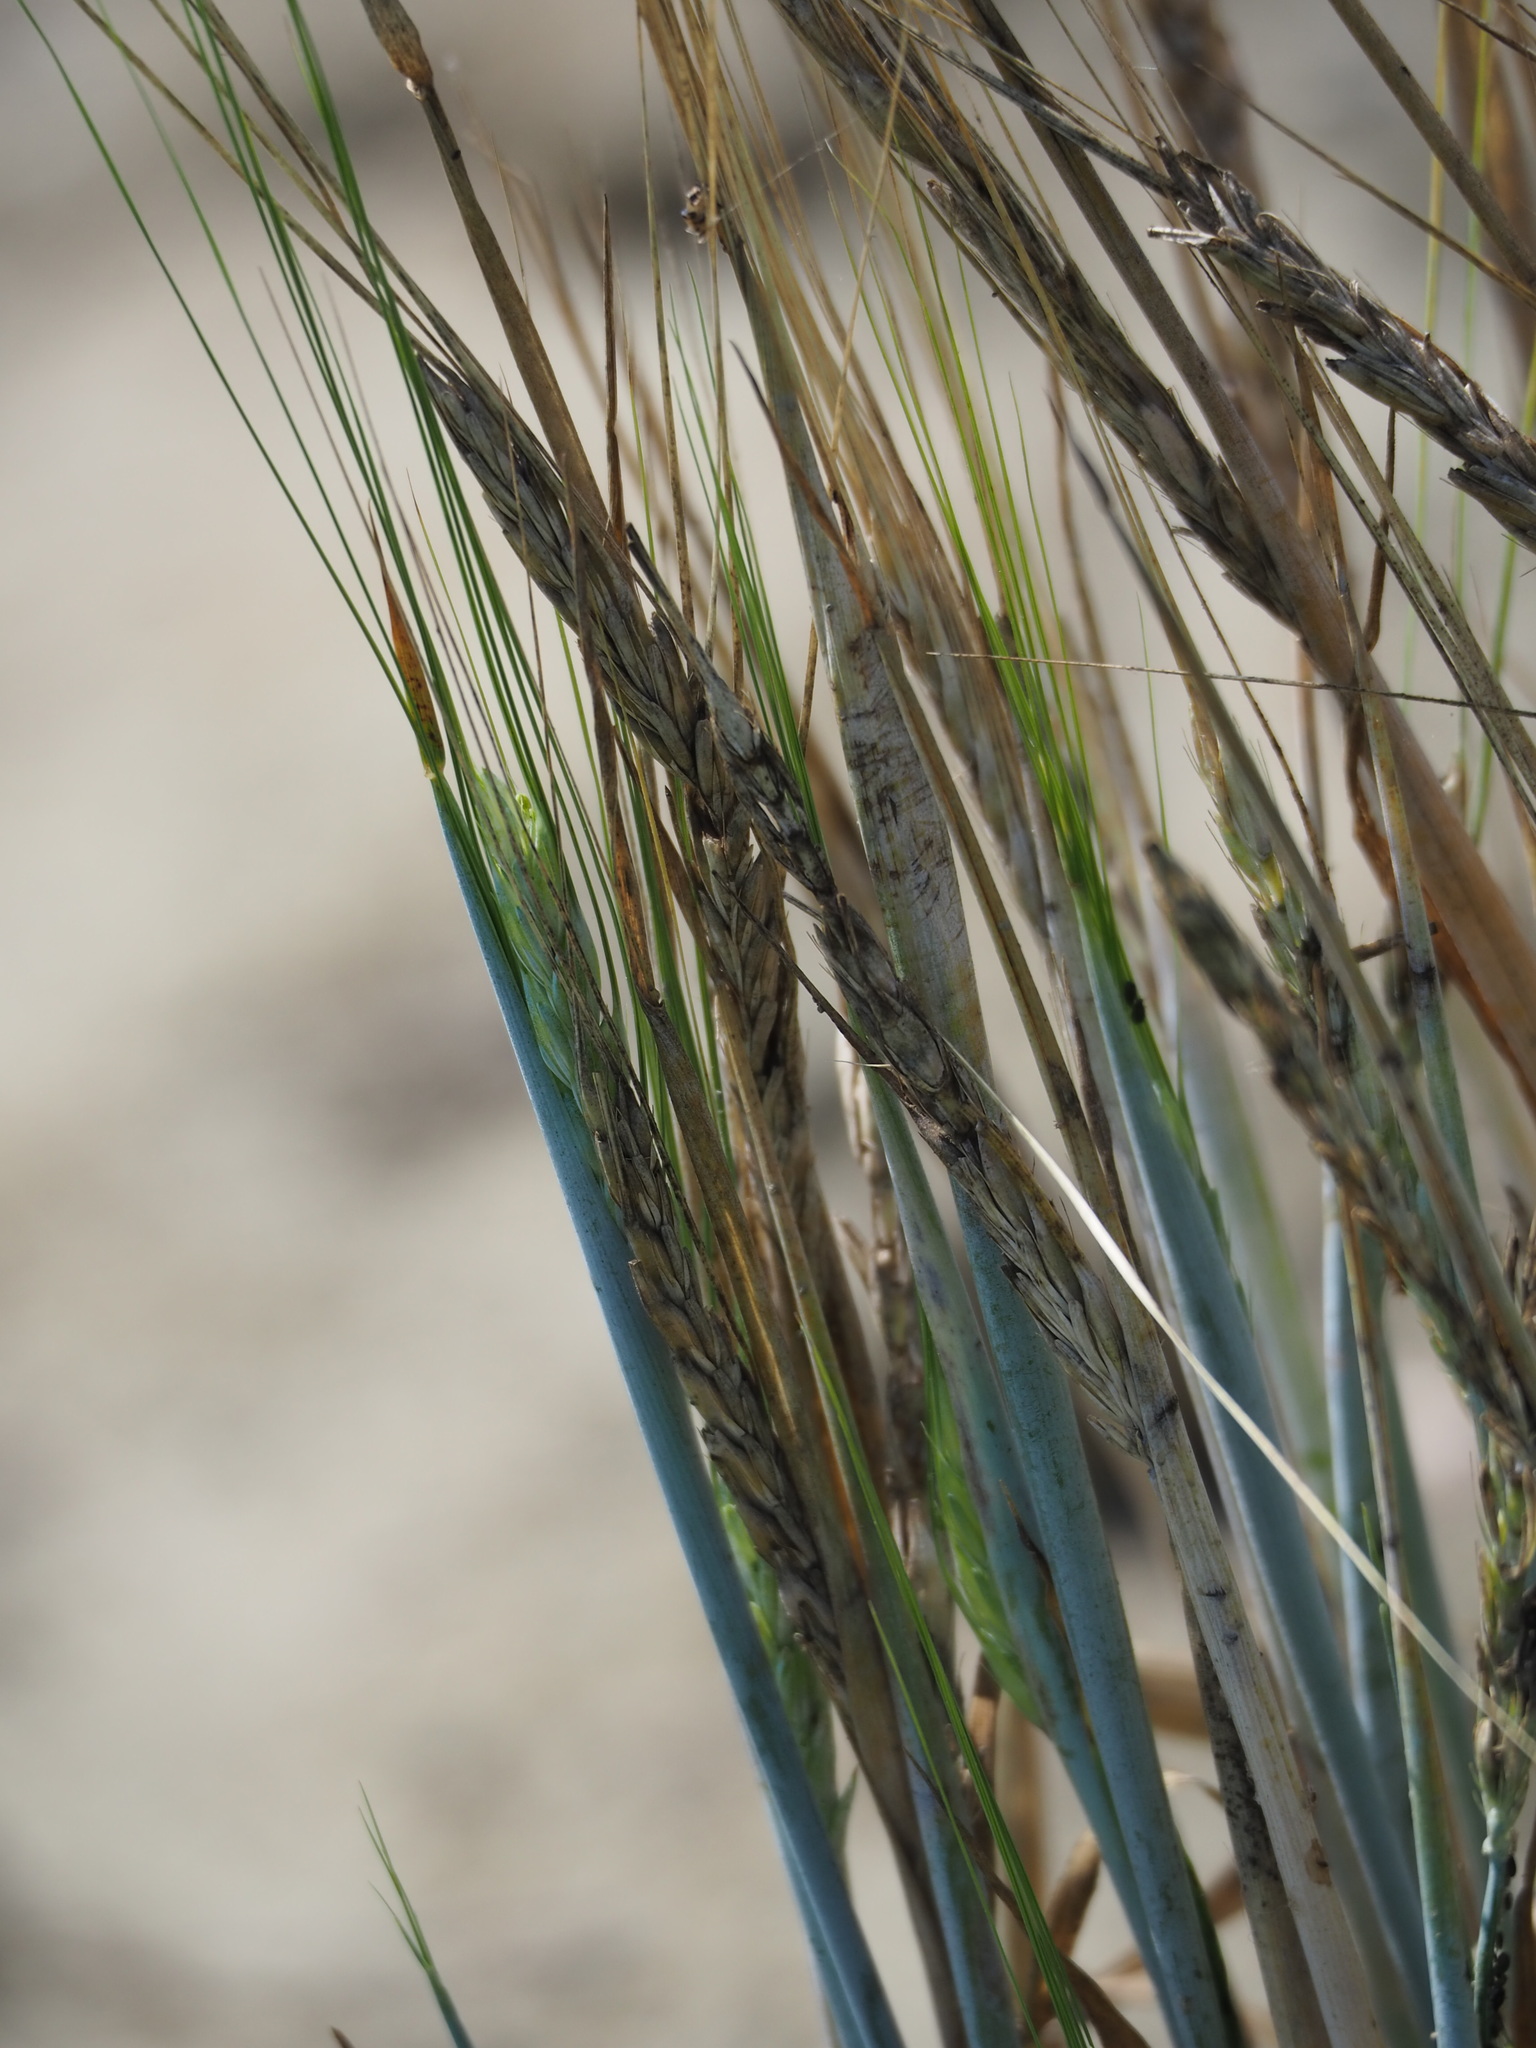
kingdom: Plantae
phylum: Tracheophyta
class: Liliopsida
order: Poales
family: Poaceae
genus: Triticum
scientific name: Triticum aestivum
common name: Common wheat
